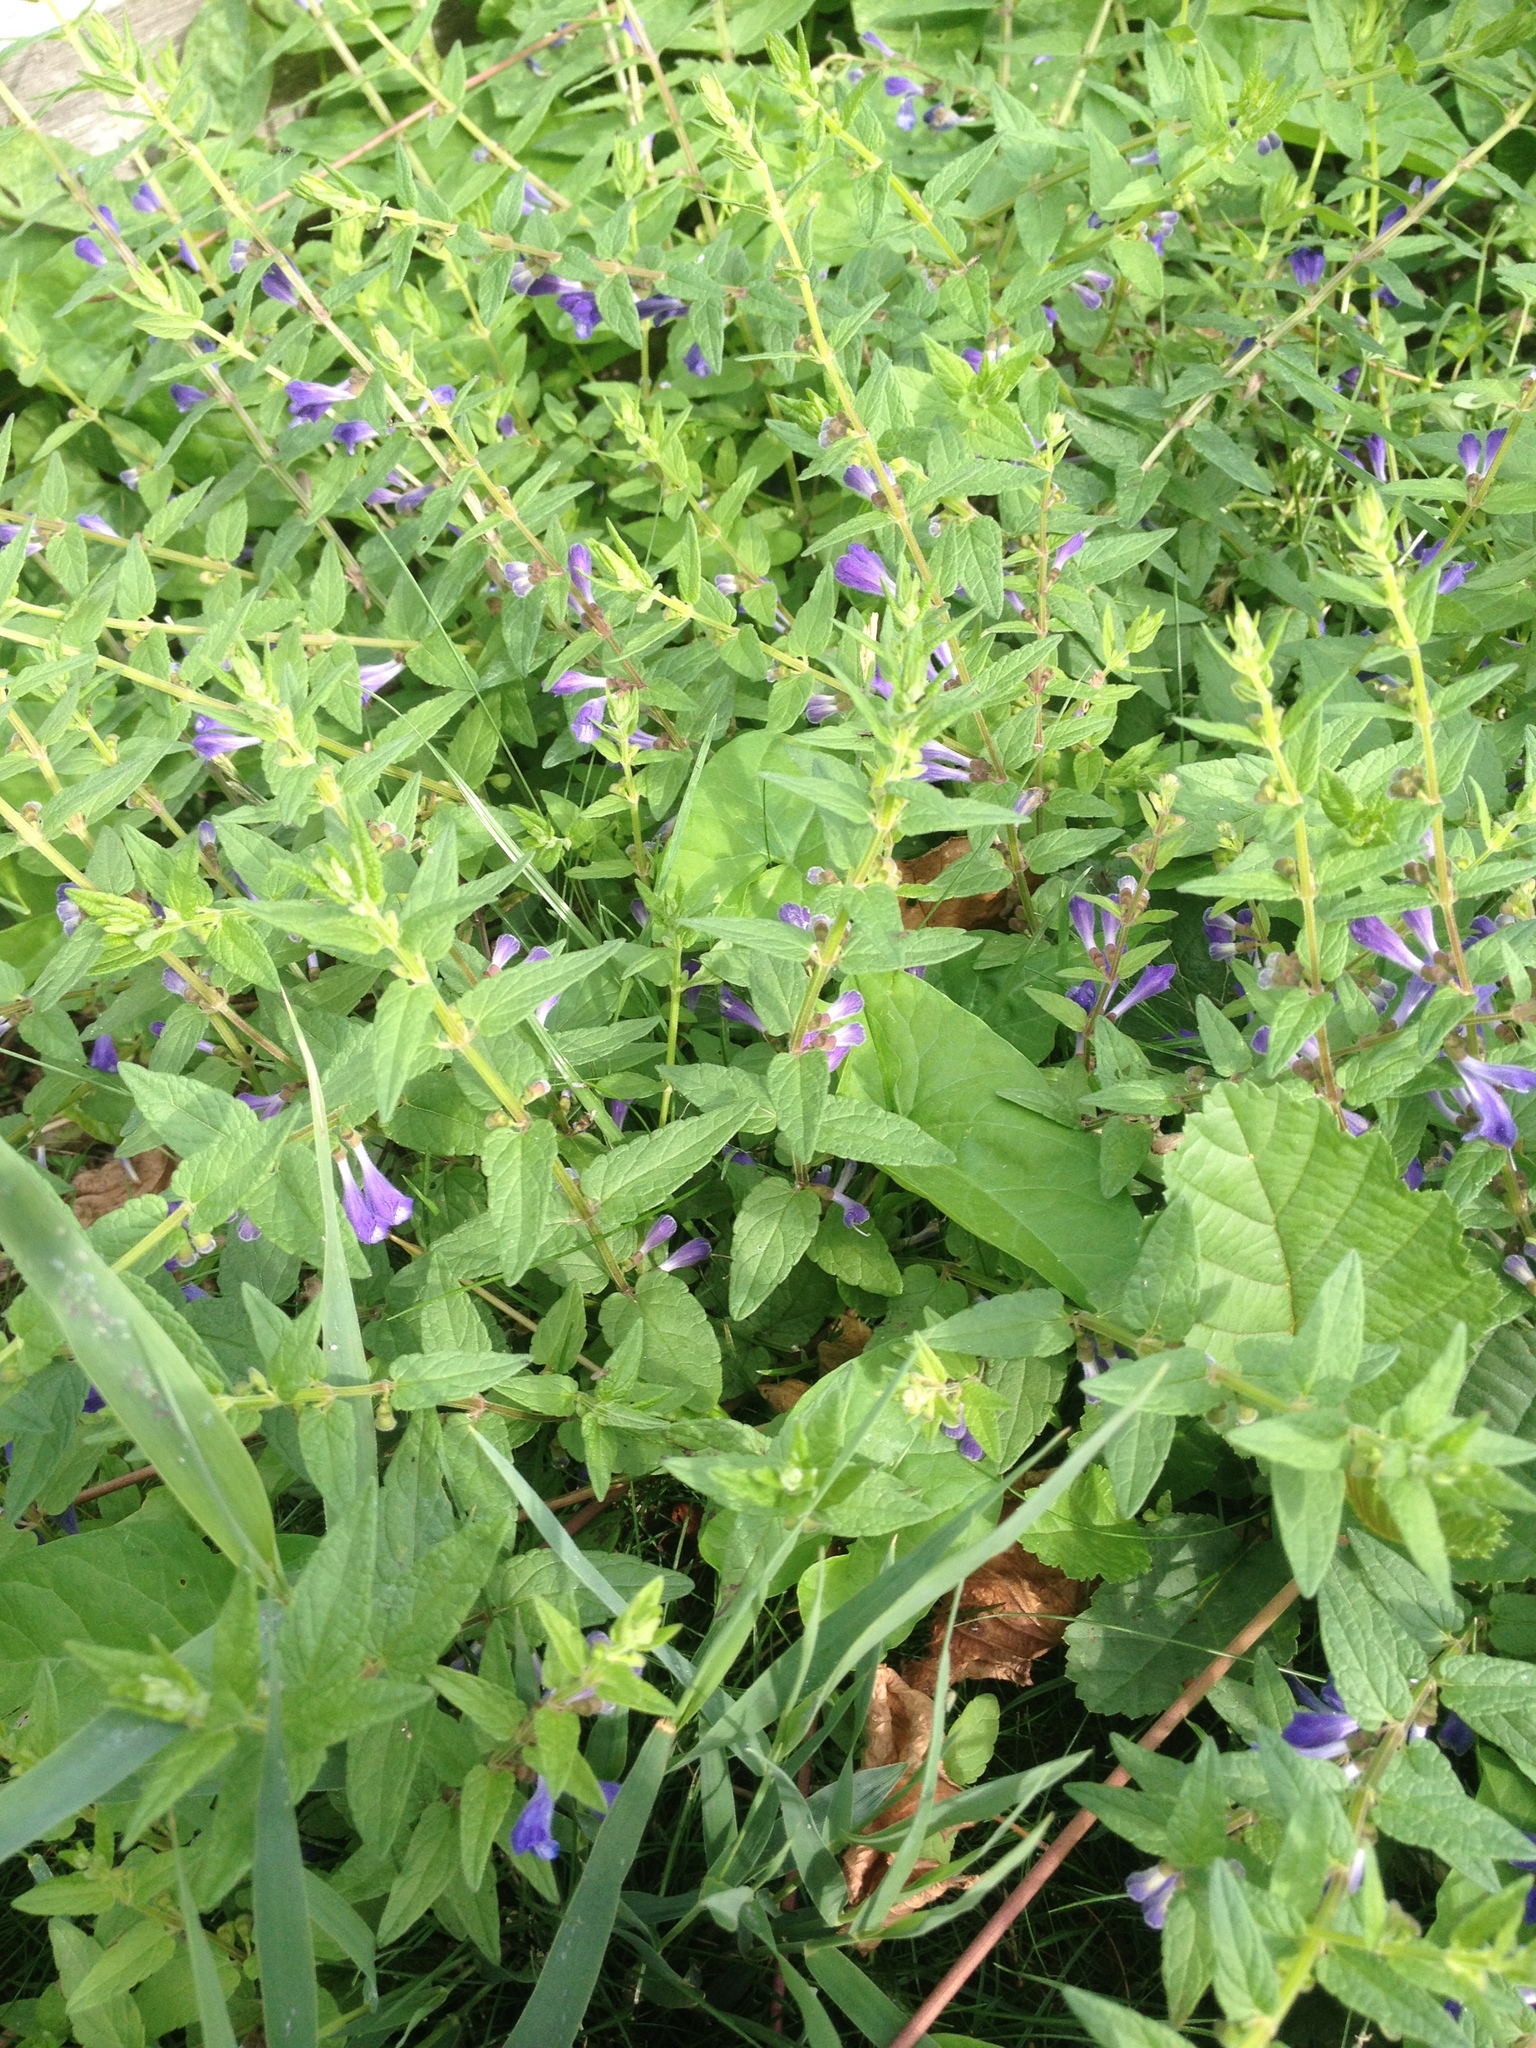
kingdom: Plantae
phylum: Tracheophyta
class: Magnoliopsida
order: Lamiales
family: Lamiaceae
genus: Scutellaria
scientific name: Scutellaria galericulata
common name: Skullcap
